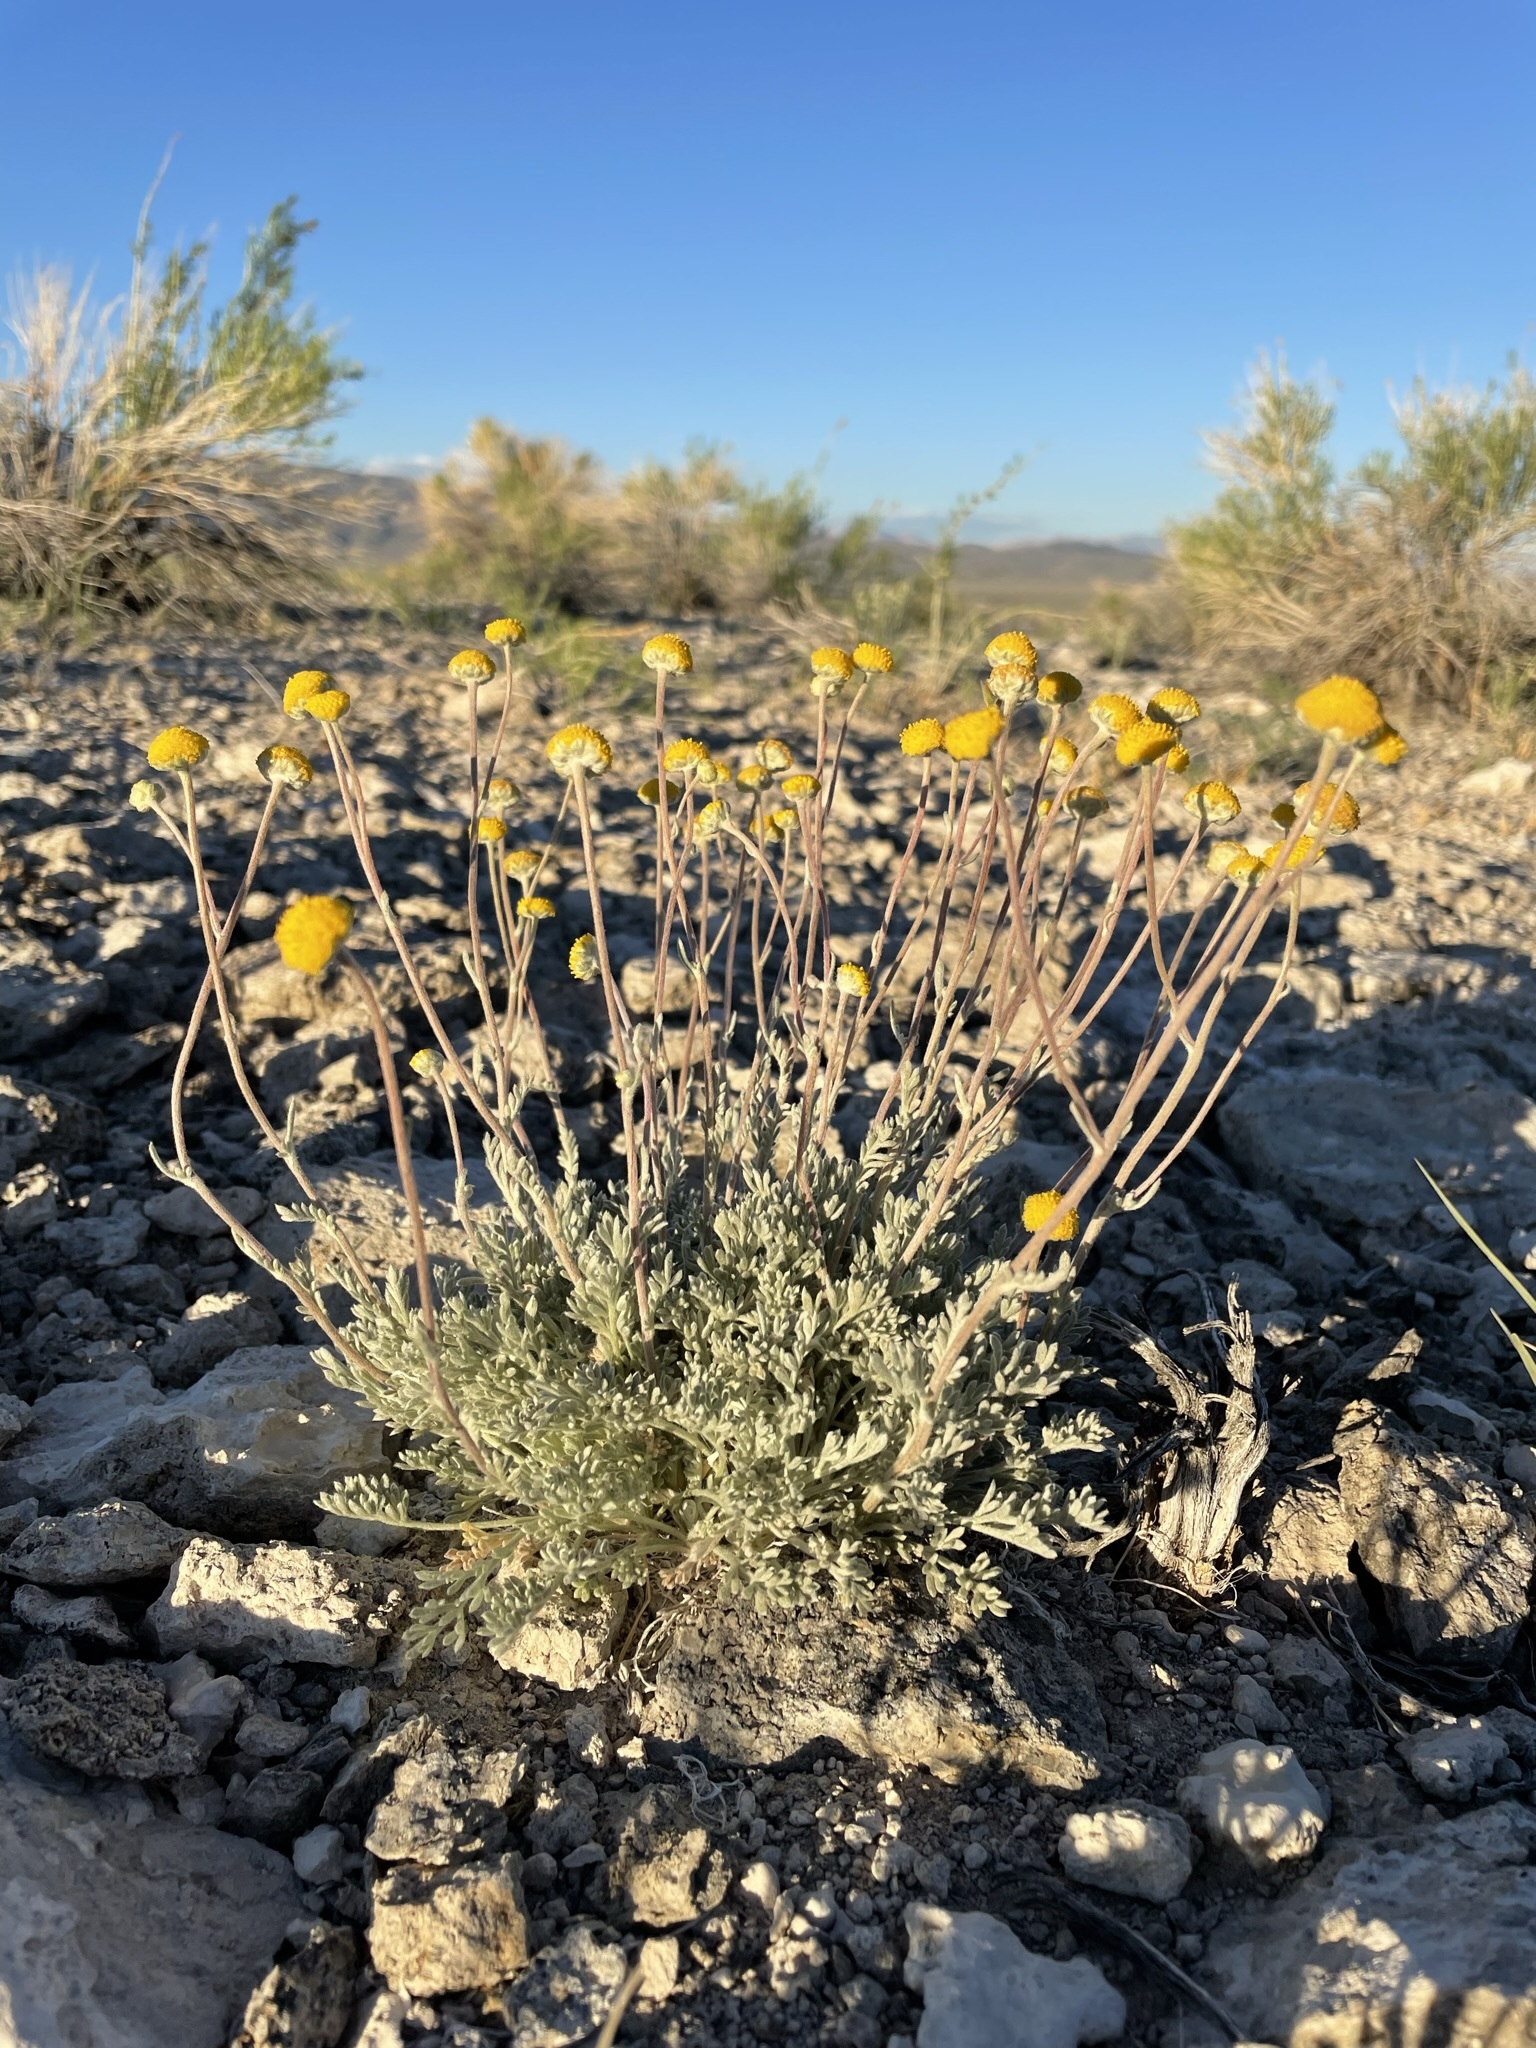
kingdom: Plantae
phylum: Tracheophyta
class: Magnoliopsida
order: Asterales
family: Asteraceae
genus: Artemisia
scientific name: Artemisia potentilloides
